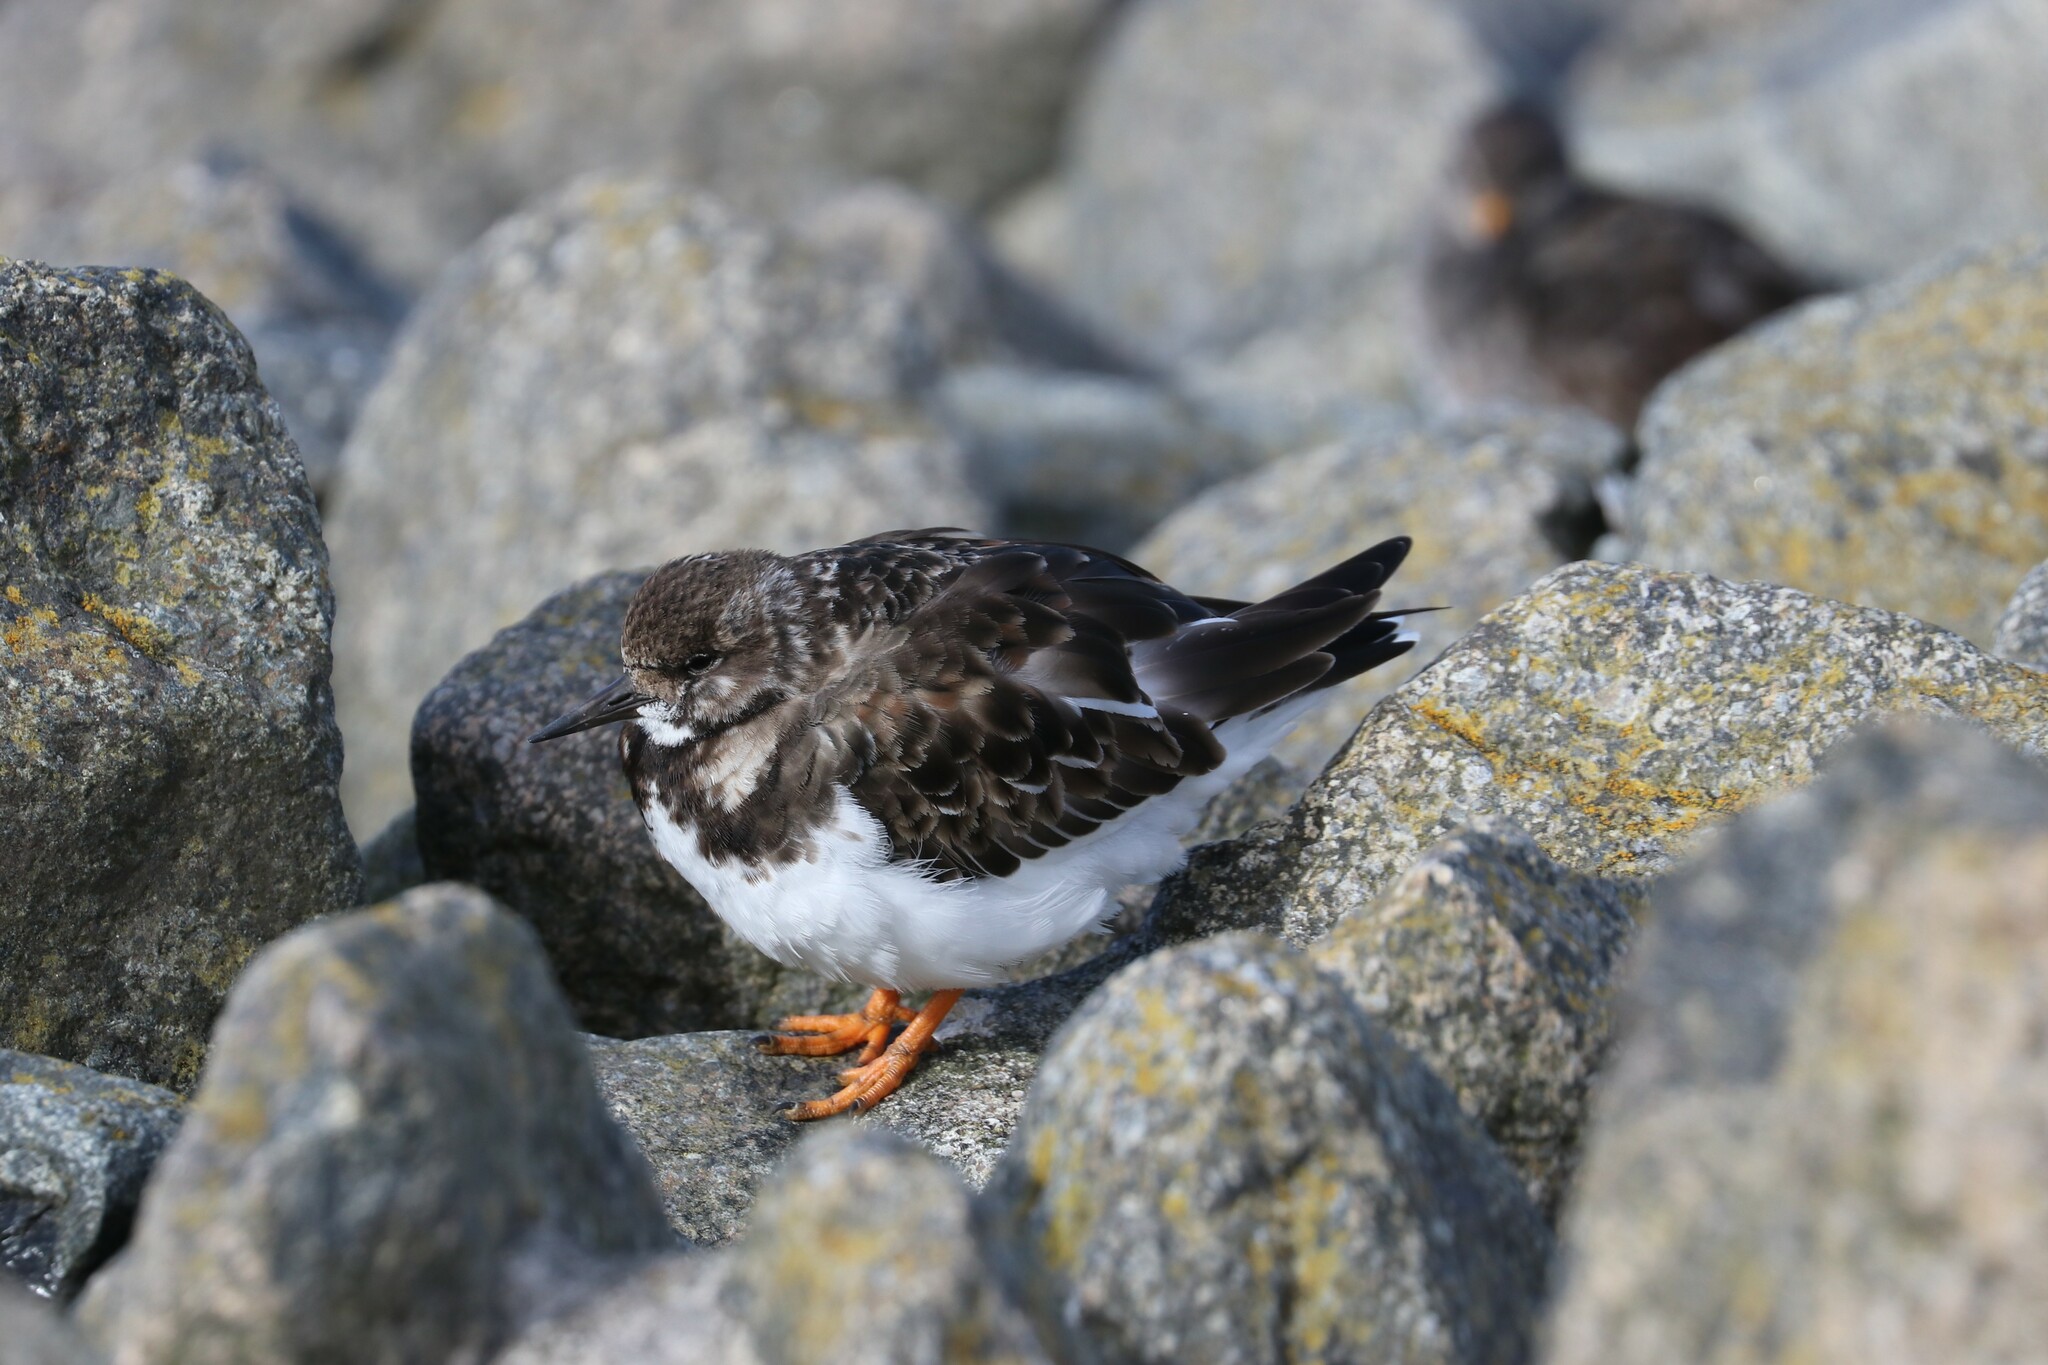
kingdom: Animalia
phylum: Chordata
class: Aves
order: Charadriiformes
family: Scolopacidae
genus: Arenaria
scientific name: Arenaria interpres
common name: Ruddy turnstone
